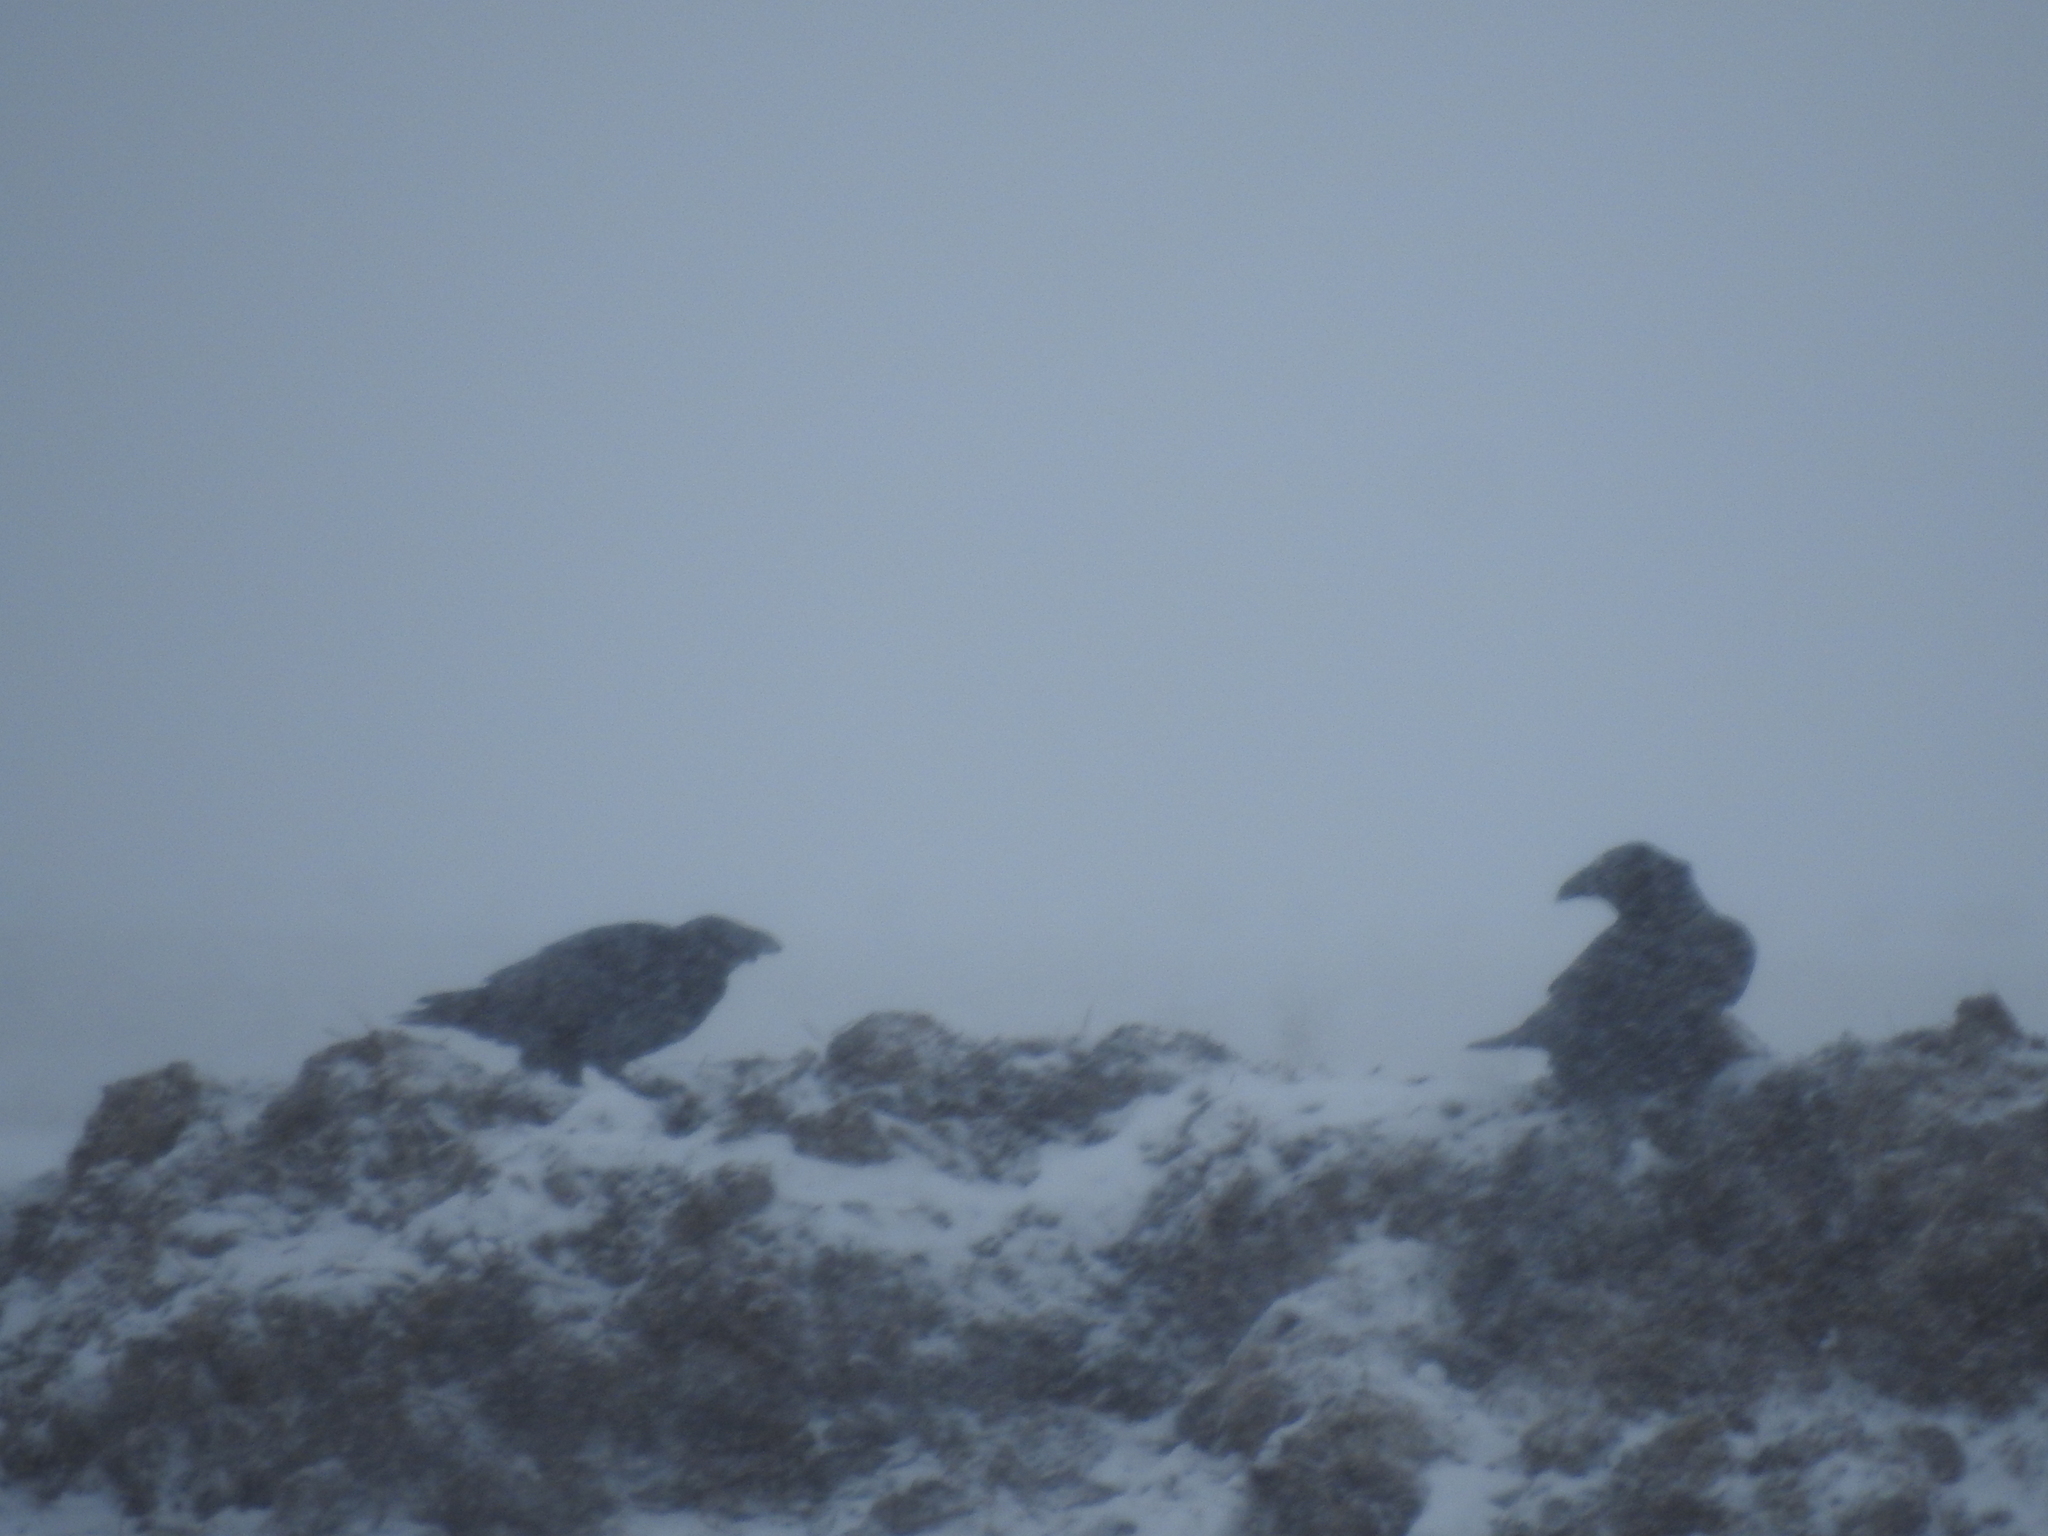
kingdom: Animalia
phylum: Chordata
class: Aves
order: Passeriformes
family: Corvidae
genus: Corvus
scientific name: Corvus corax
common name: Common raven
